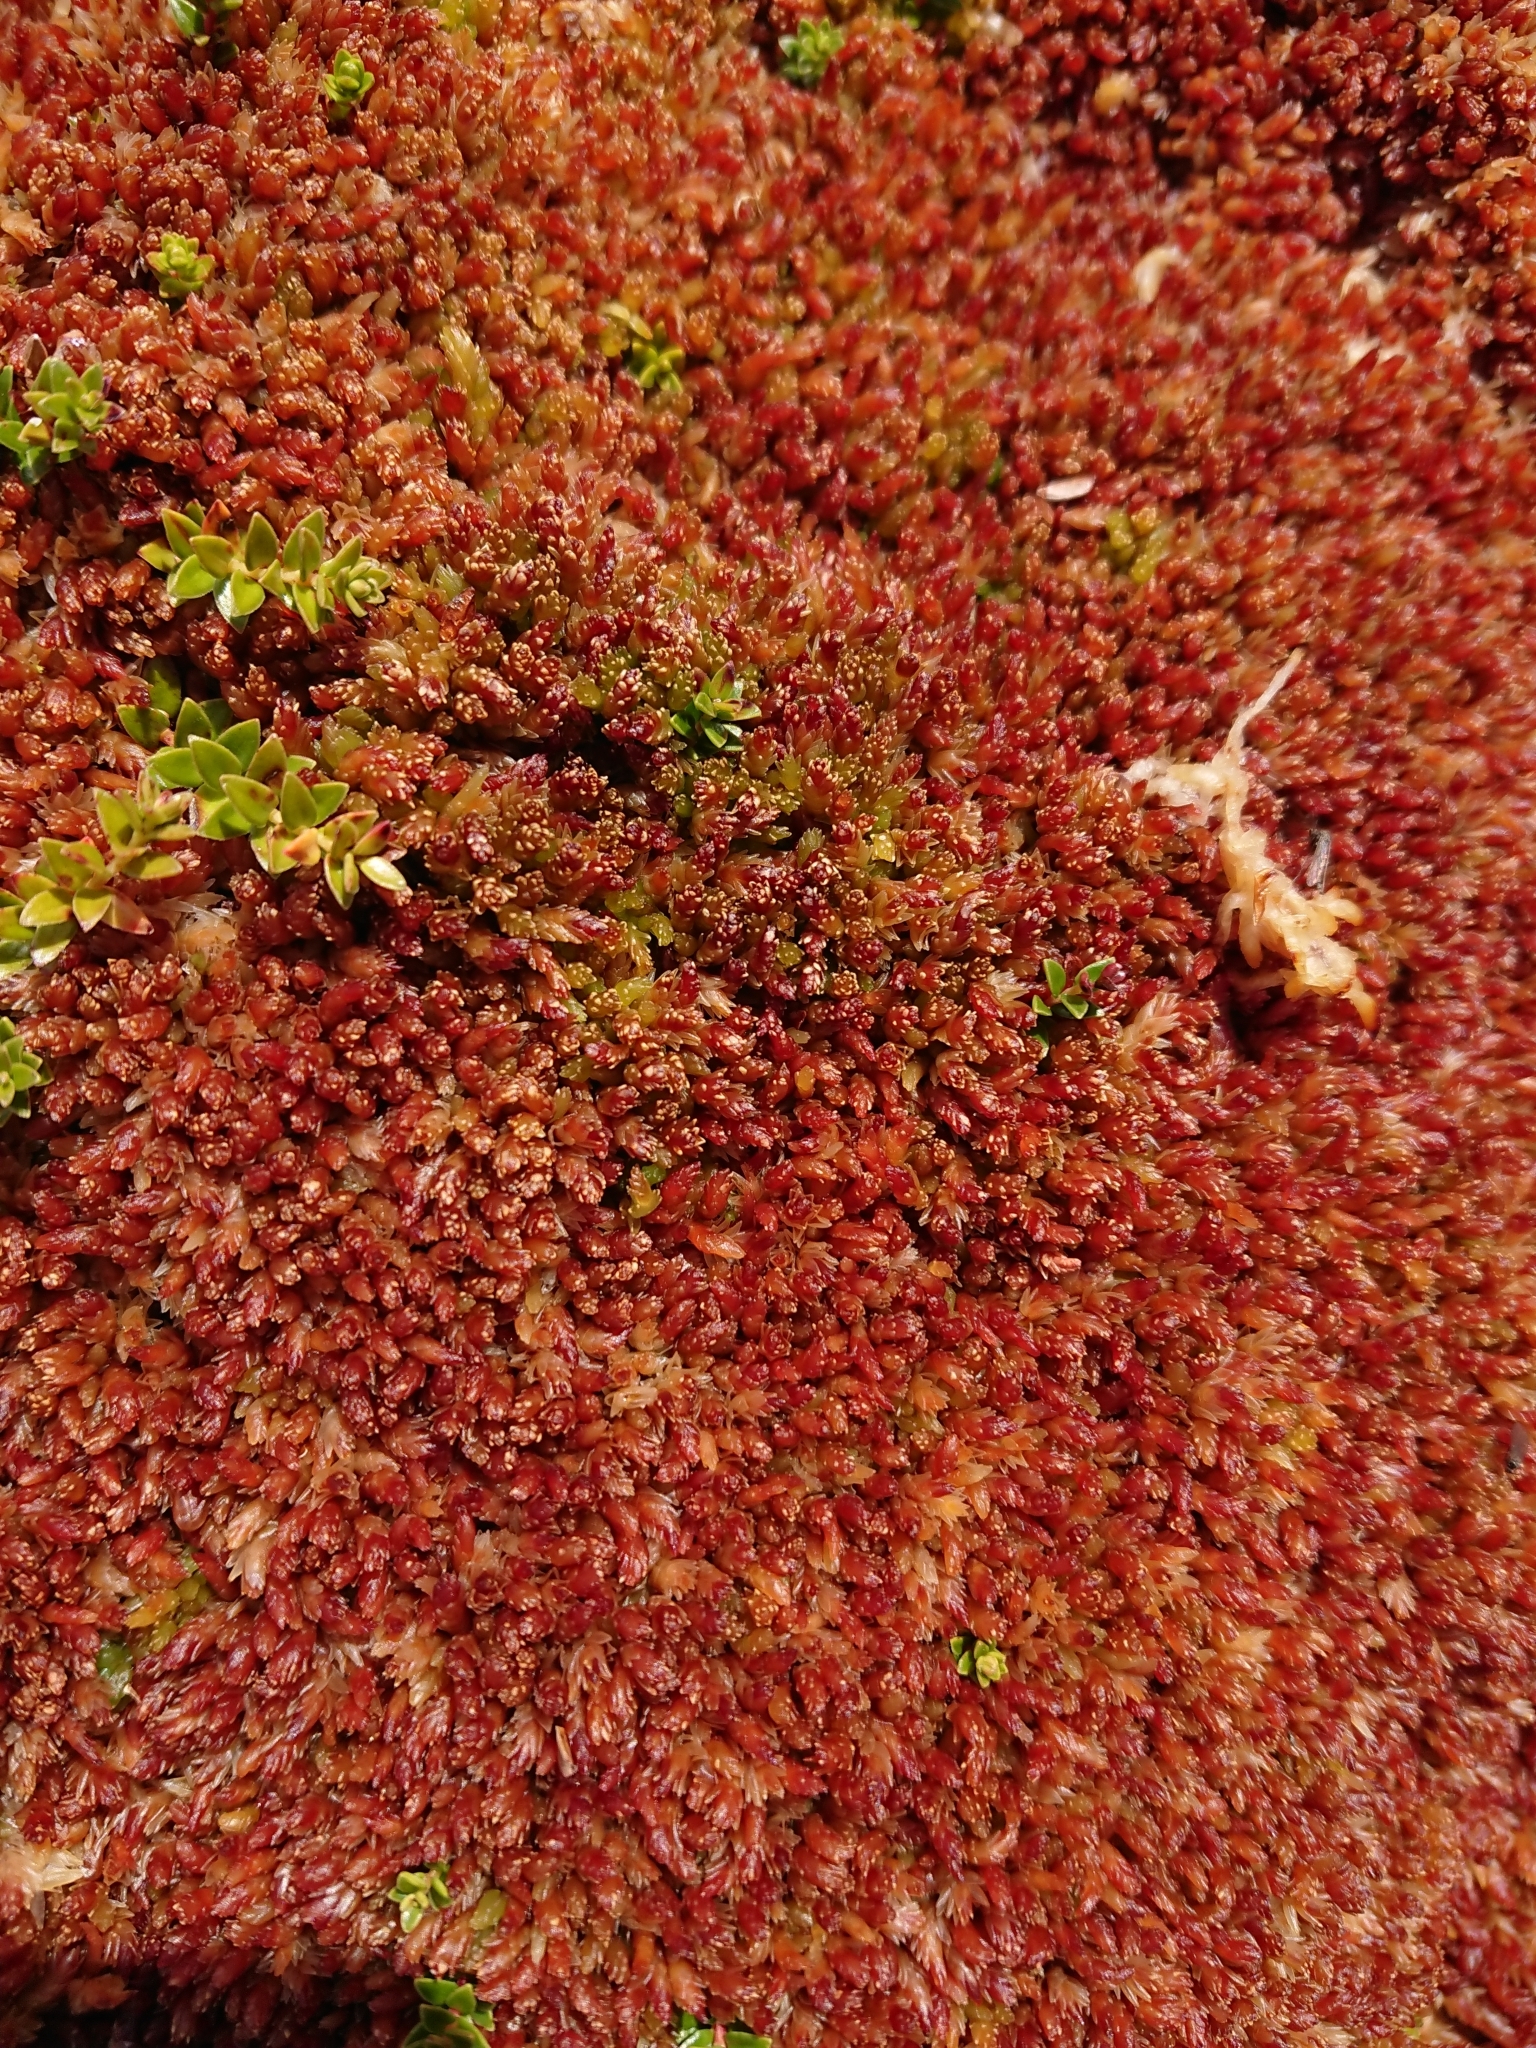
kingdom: Plantae
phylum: Bryophyta
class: Sphagnopsida
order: Sphagnales
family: Sphagnaceae
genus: Sphagnum
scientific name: Sphagnum magellanicum
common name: Magellan's peat moss
